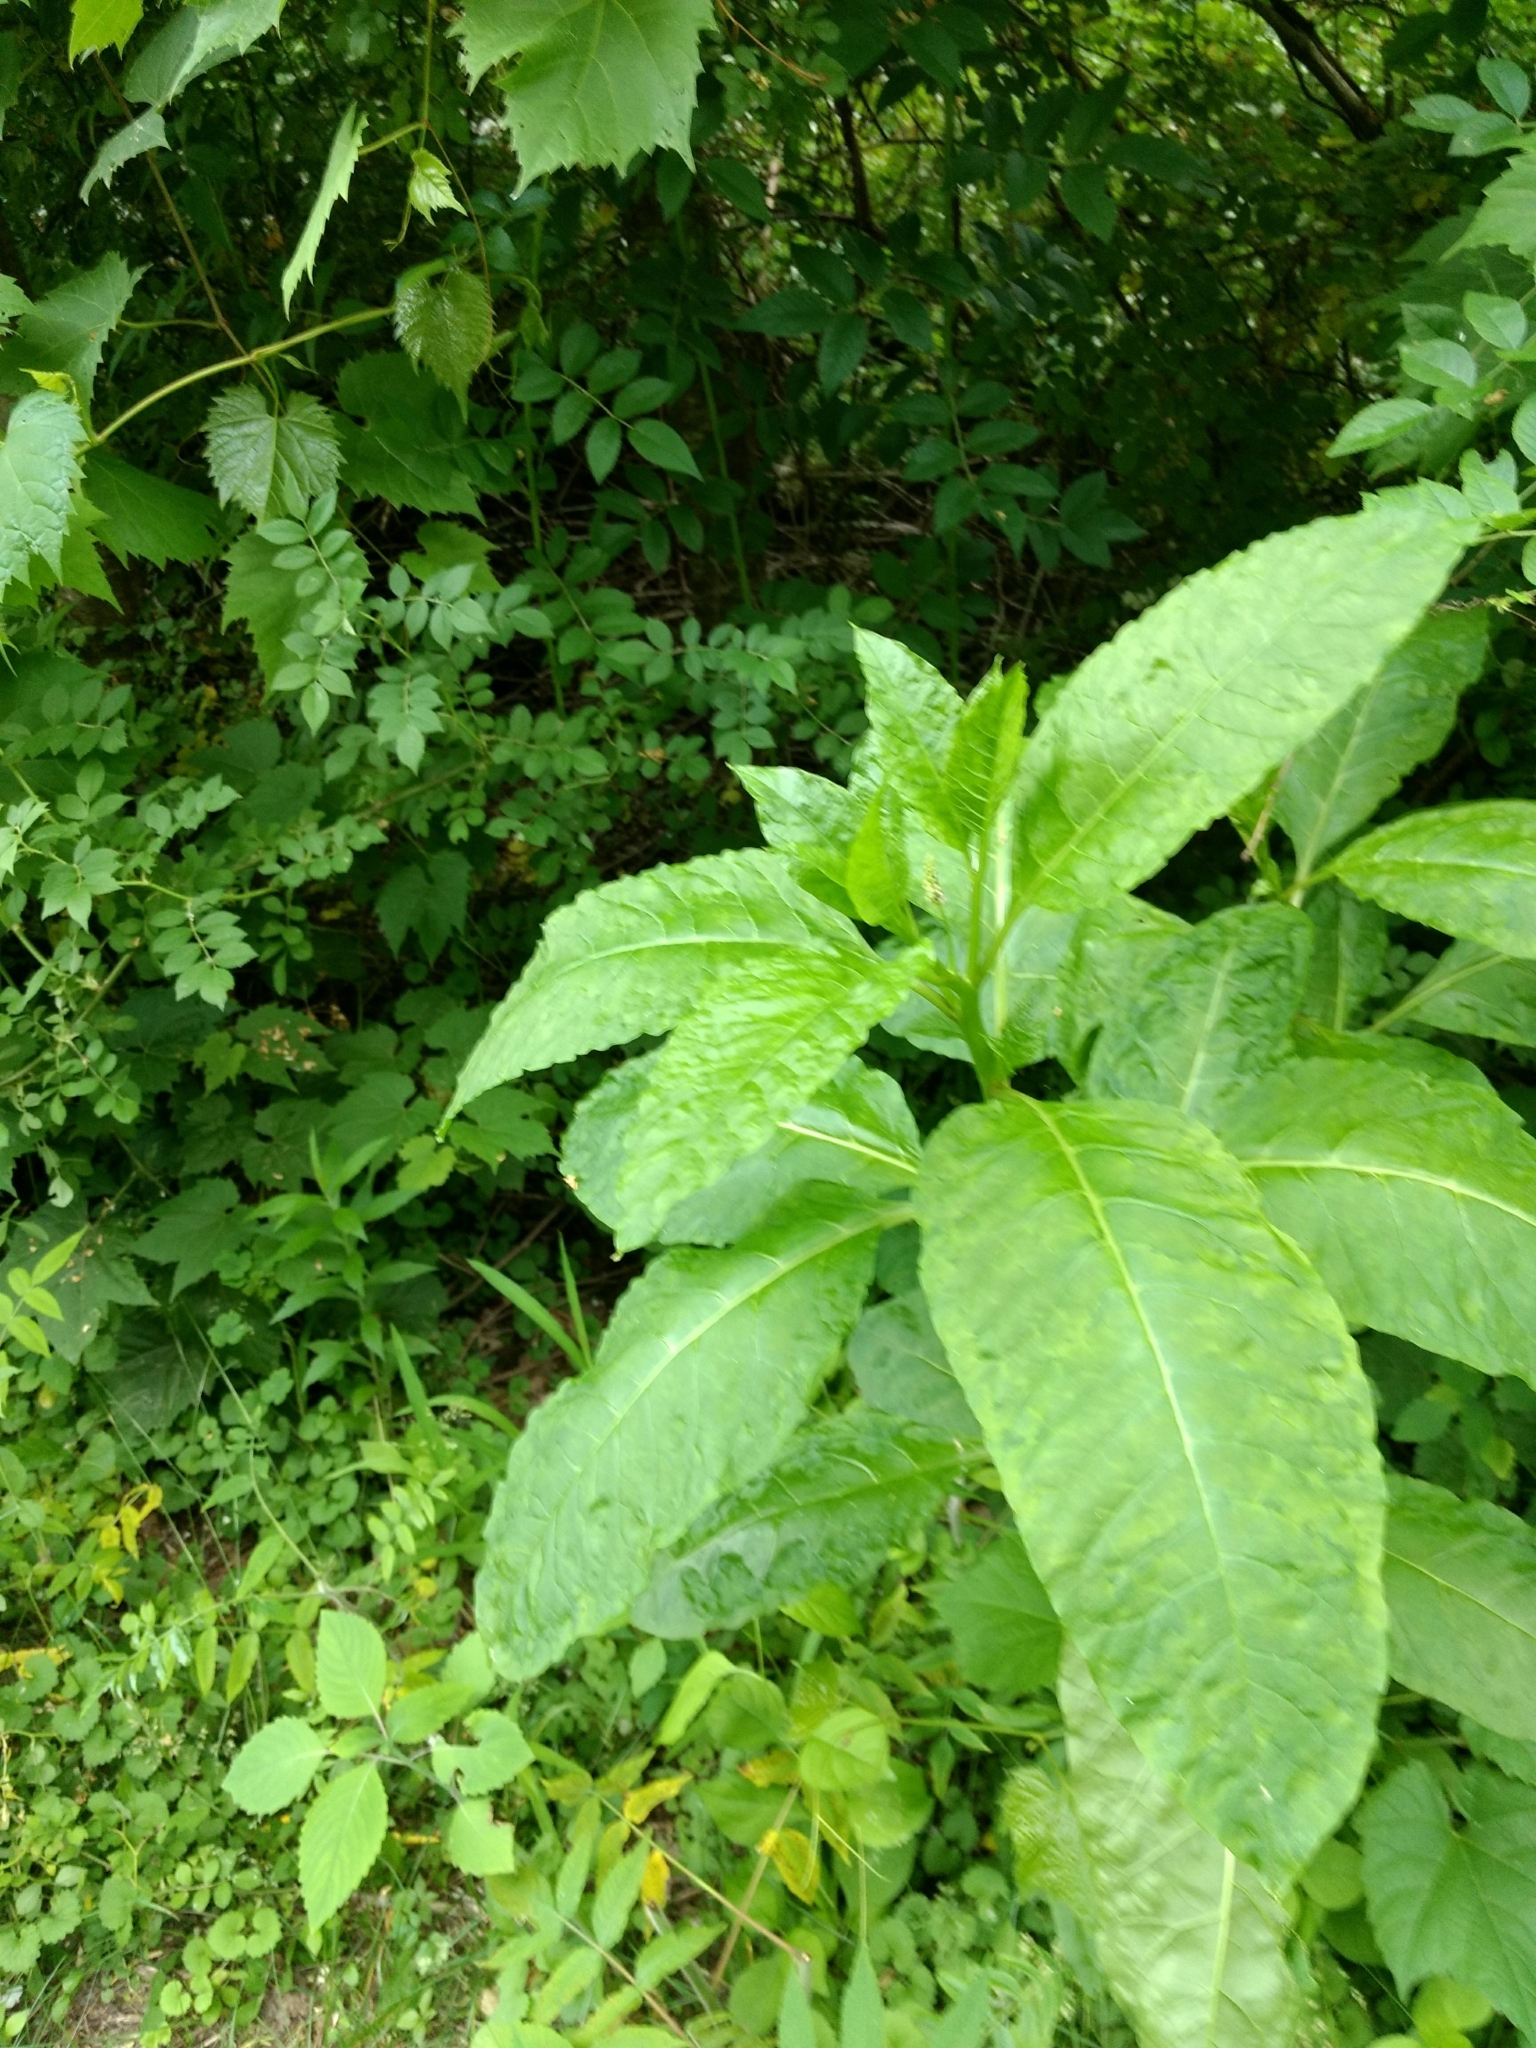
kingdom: Plantae
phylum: Tracheophyta
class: Magnoliopsida
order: Caryophyllales
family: Phytolaccaceae
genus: Phytolacca
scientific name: Phytolacca americana
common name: American pokeweed
